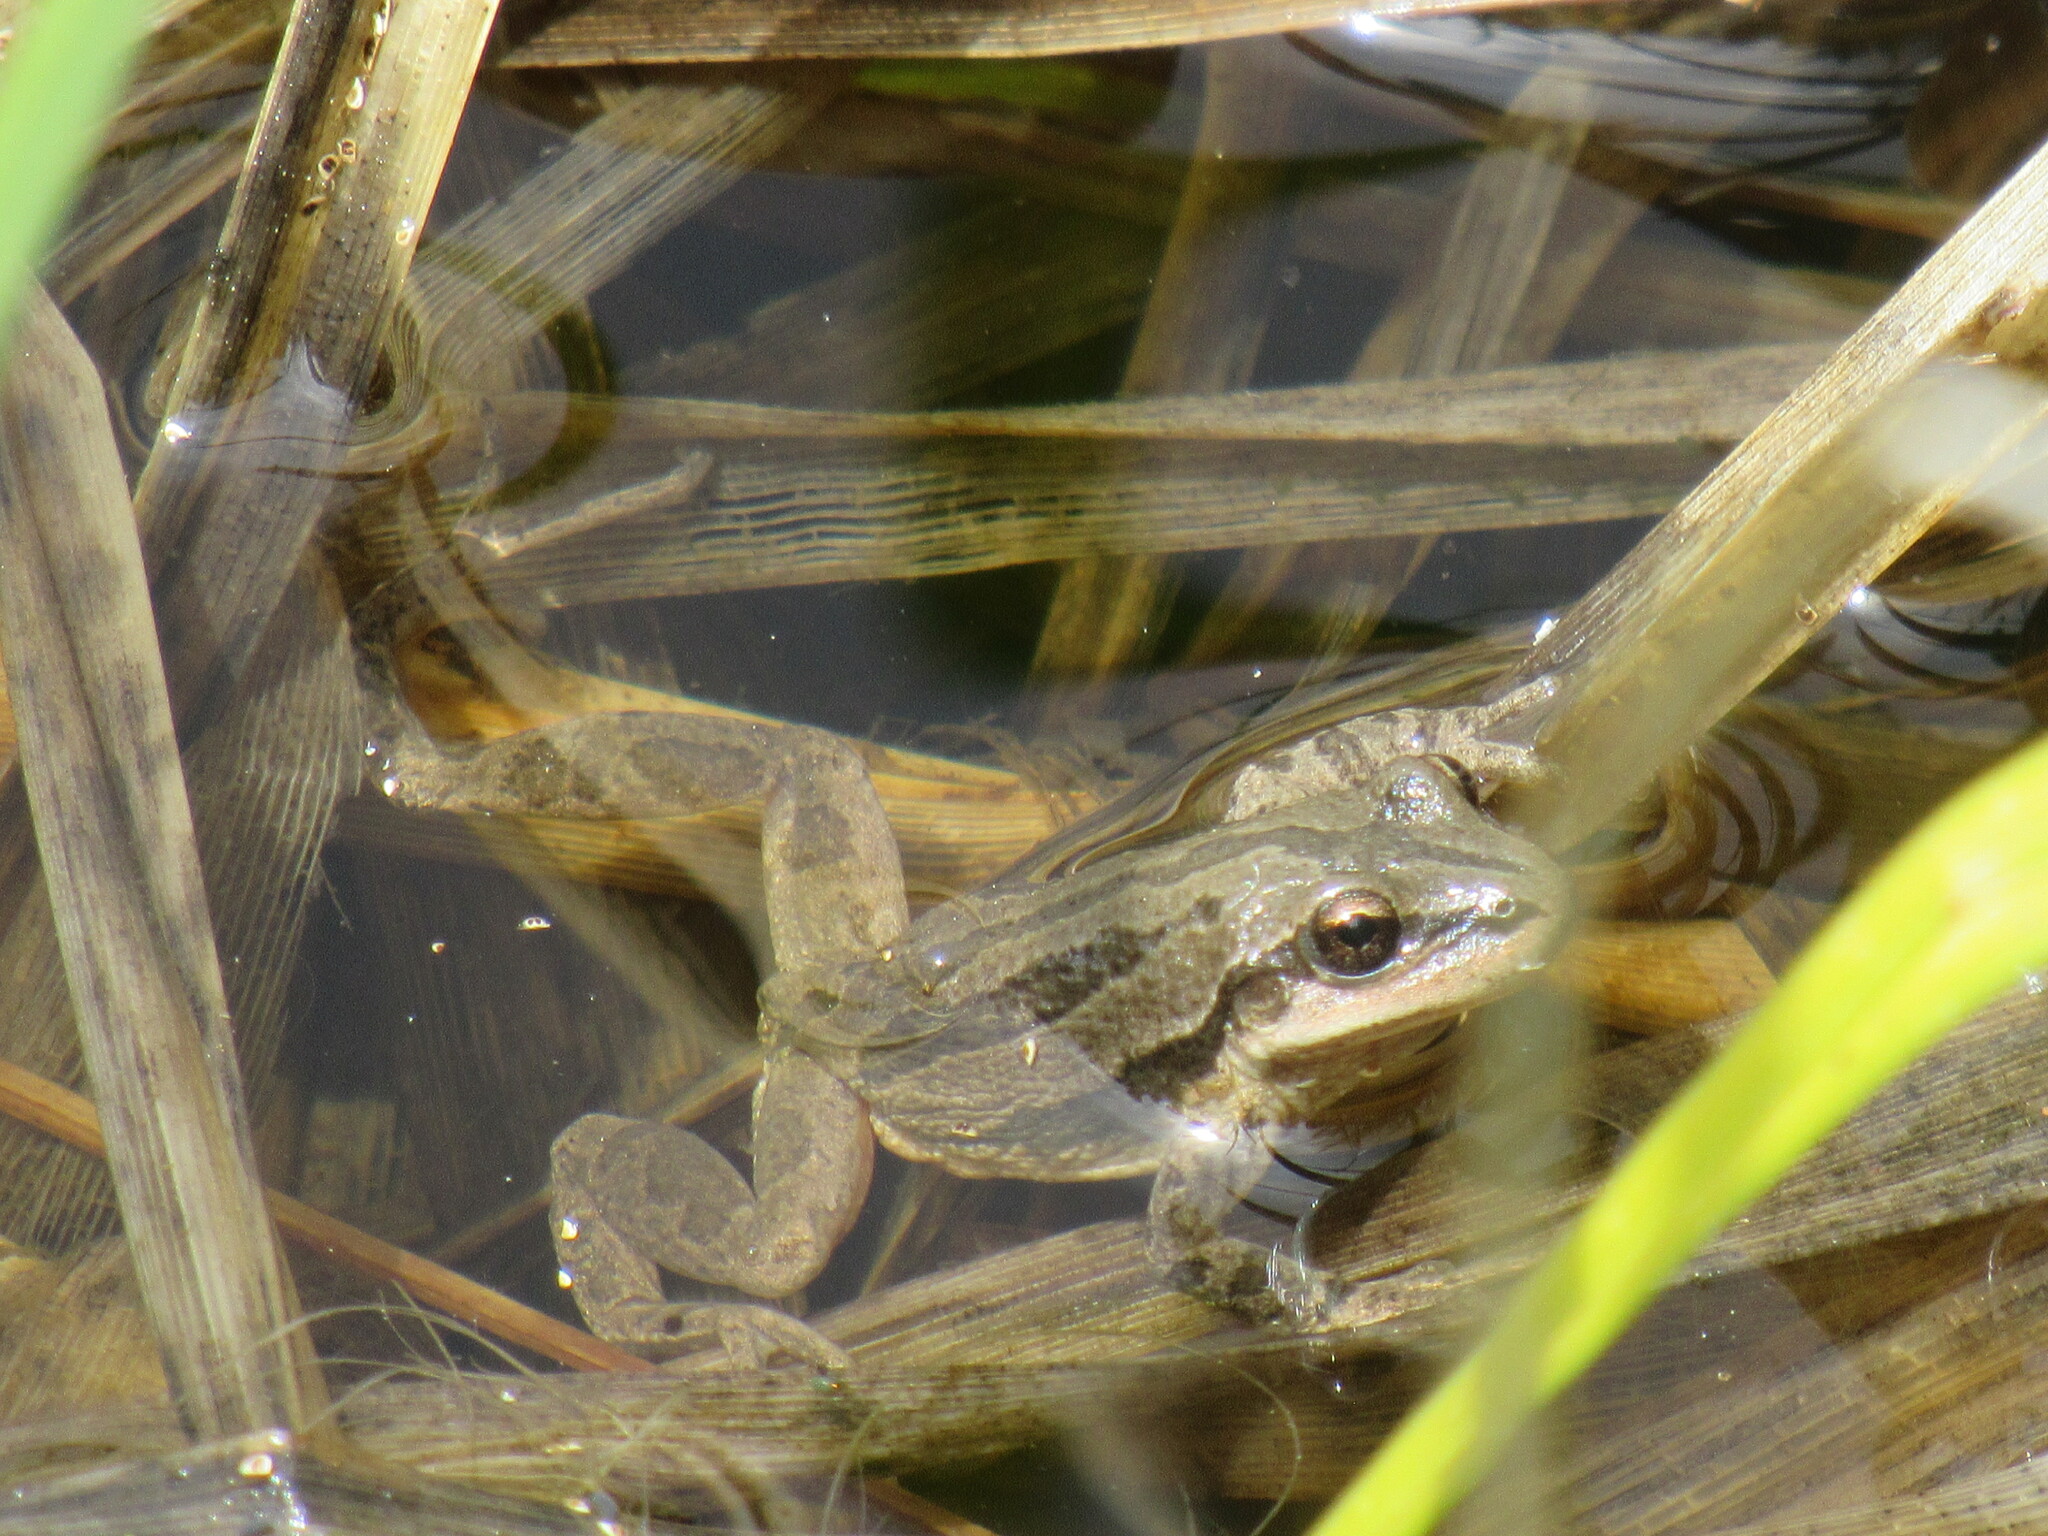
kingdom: Animalia
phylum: Chordata
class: Amphibia
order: Anura
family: Hylidae
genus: Pseudacris
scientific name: Pseudacris maculata
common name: Boreal chorus frog
